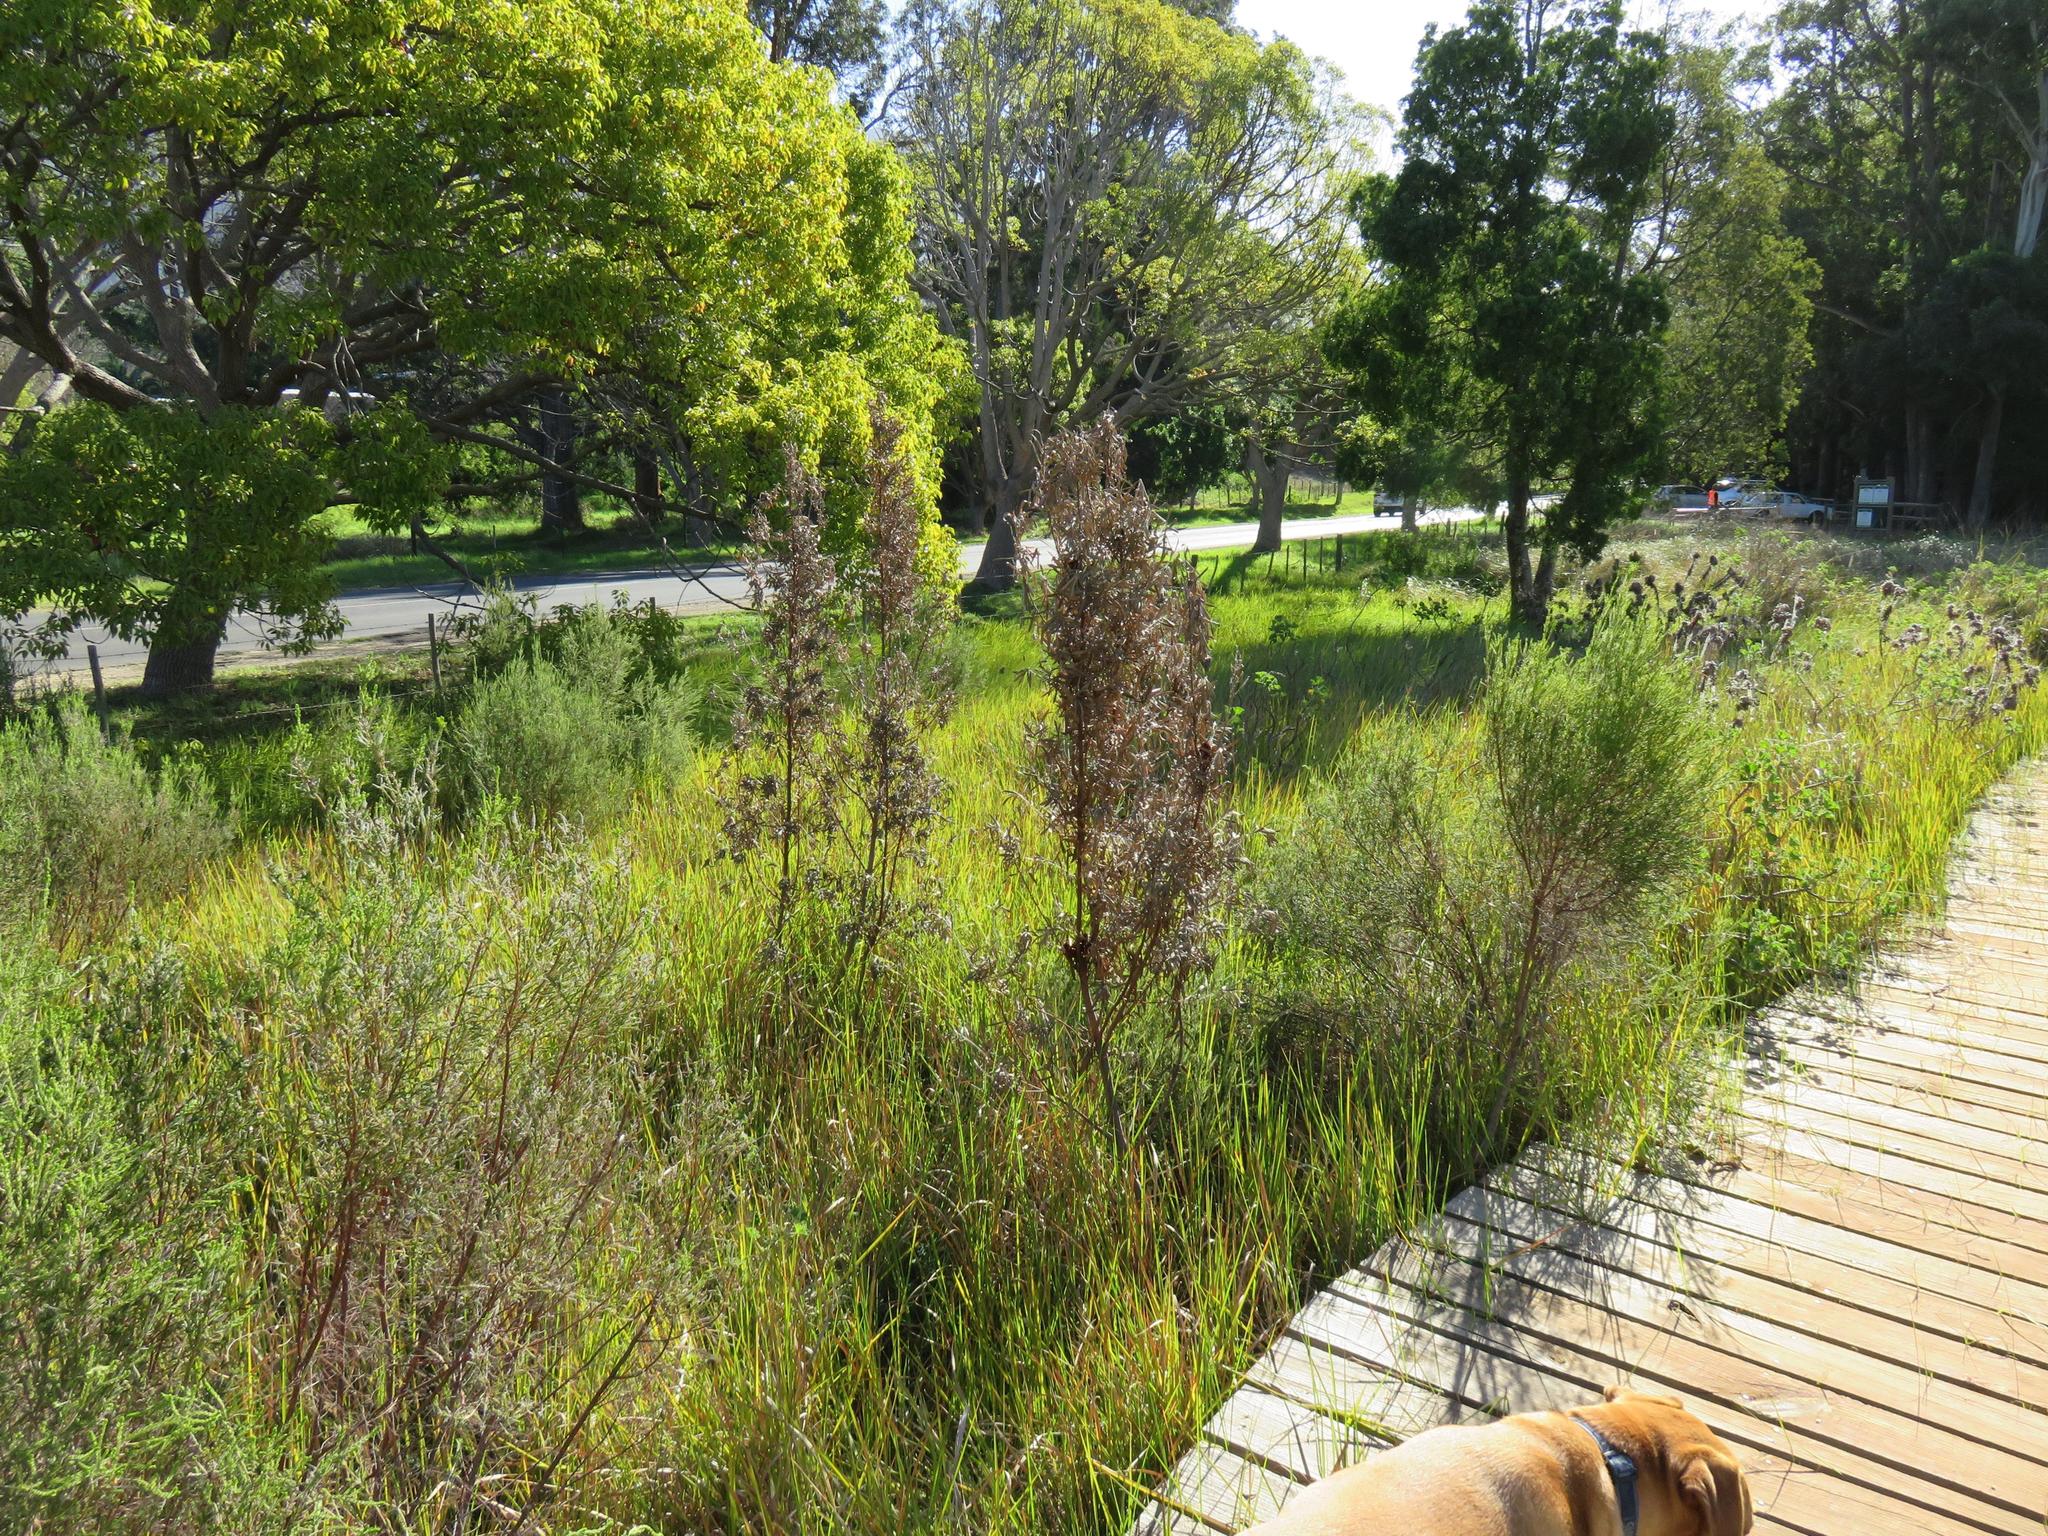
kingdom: Plantae
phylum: Tracheophyta
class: Magnoliopsida
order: Proteales
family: Proteaceae
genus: Leucadendron
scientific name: Leucadendron macowanii
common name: Acacia-leaf conebush
